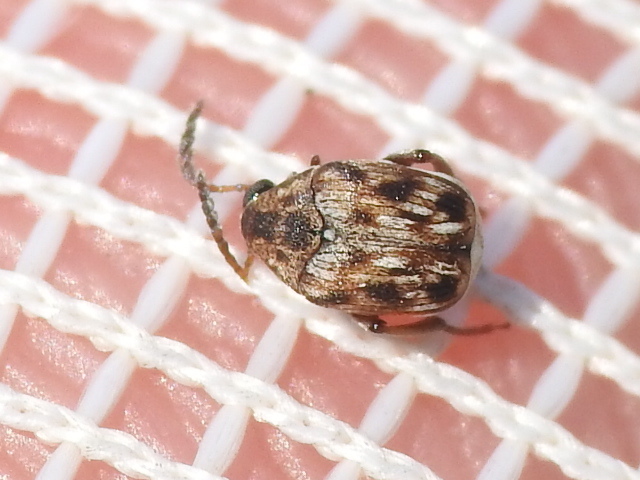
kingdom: Animalia
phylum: Arthropoda
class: Insecta
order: Coleoptera
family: Chrysomelidae
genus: Megacerus
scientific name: Megacerus cubiculus
